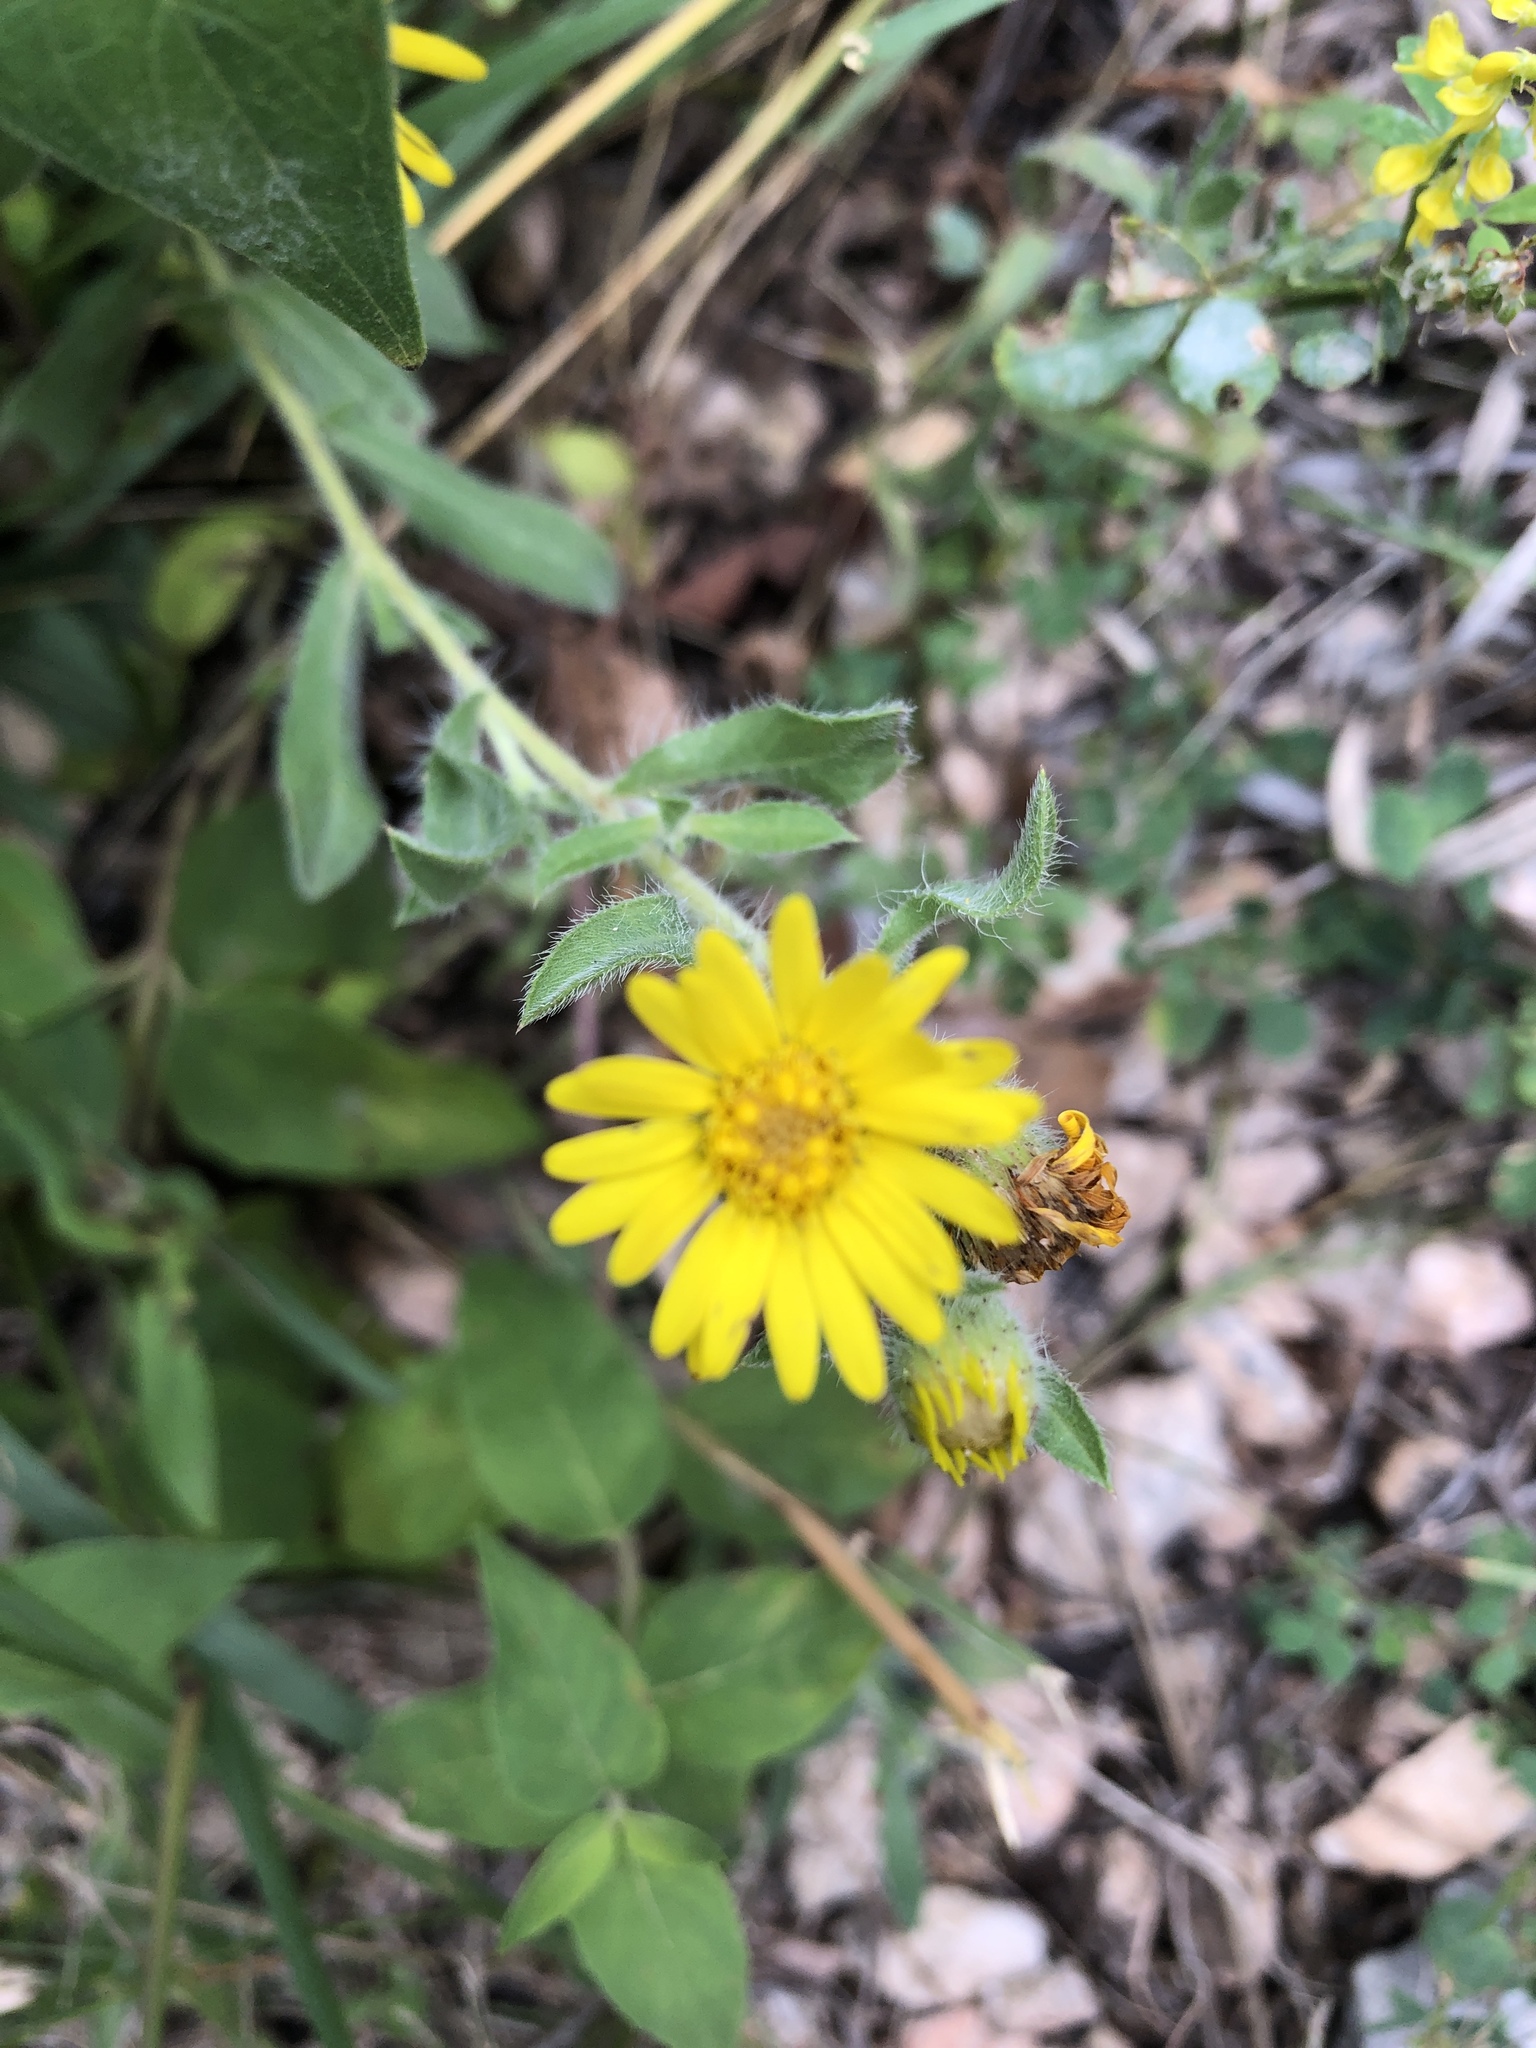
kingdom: Plantae
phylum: Tracheophyta
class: Magnoliopsida
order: Asterales
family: Asteraceae
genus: Heterotheca
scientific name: Heterotheca villosa
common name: Hairy false goldenaster
